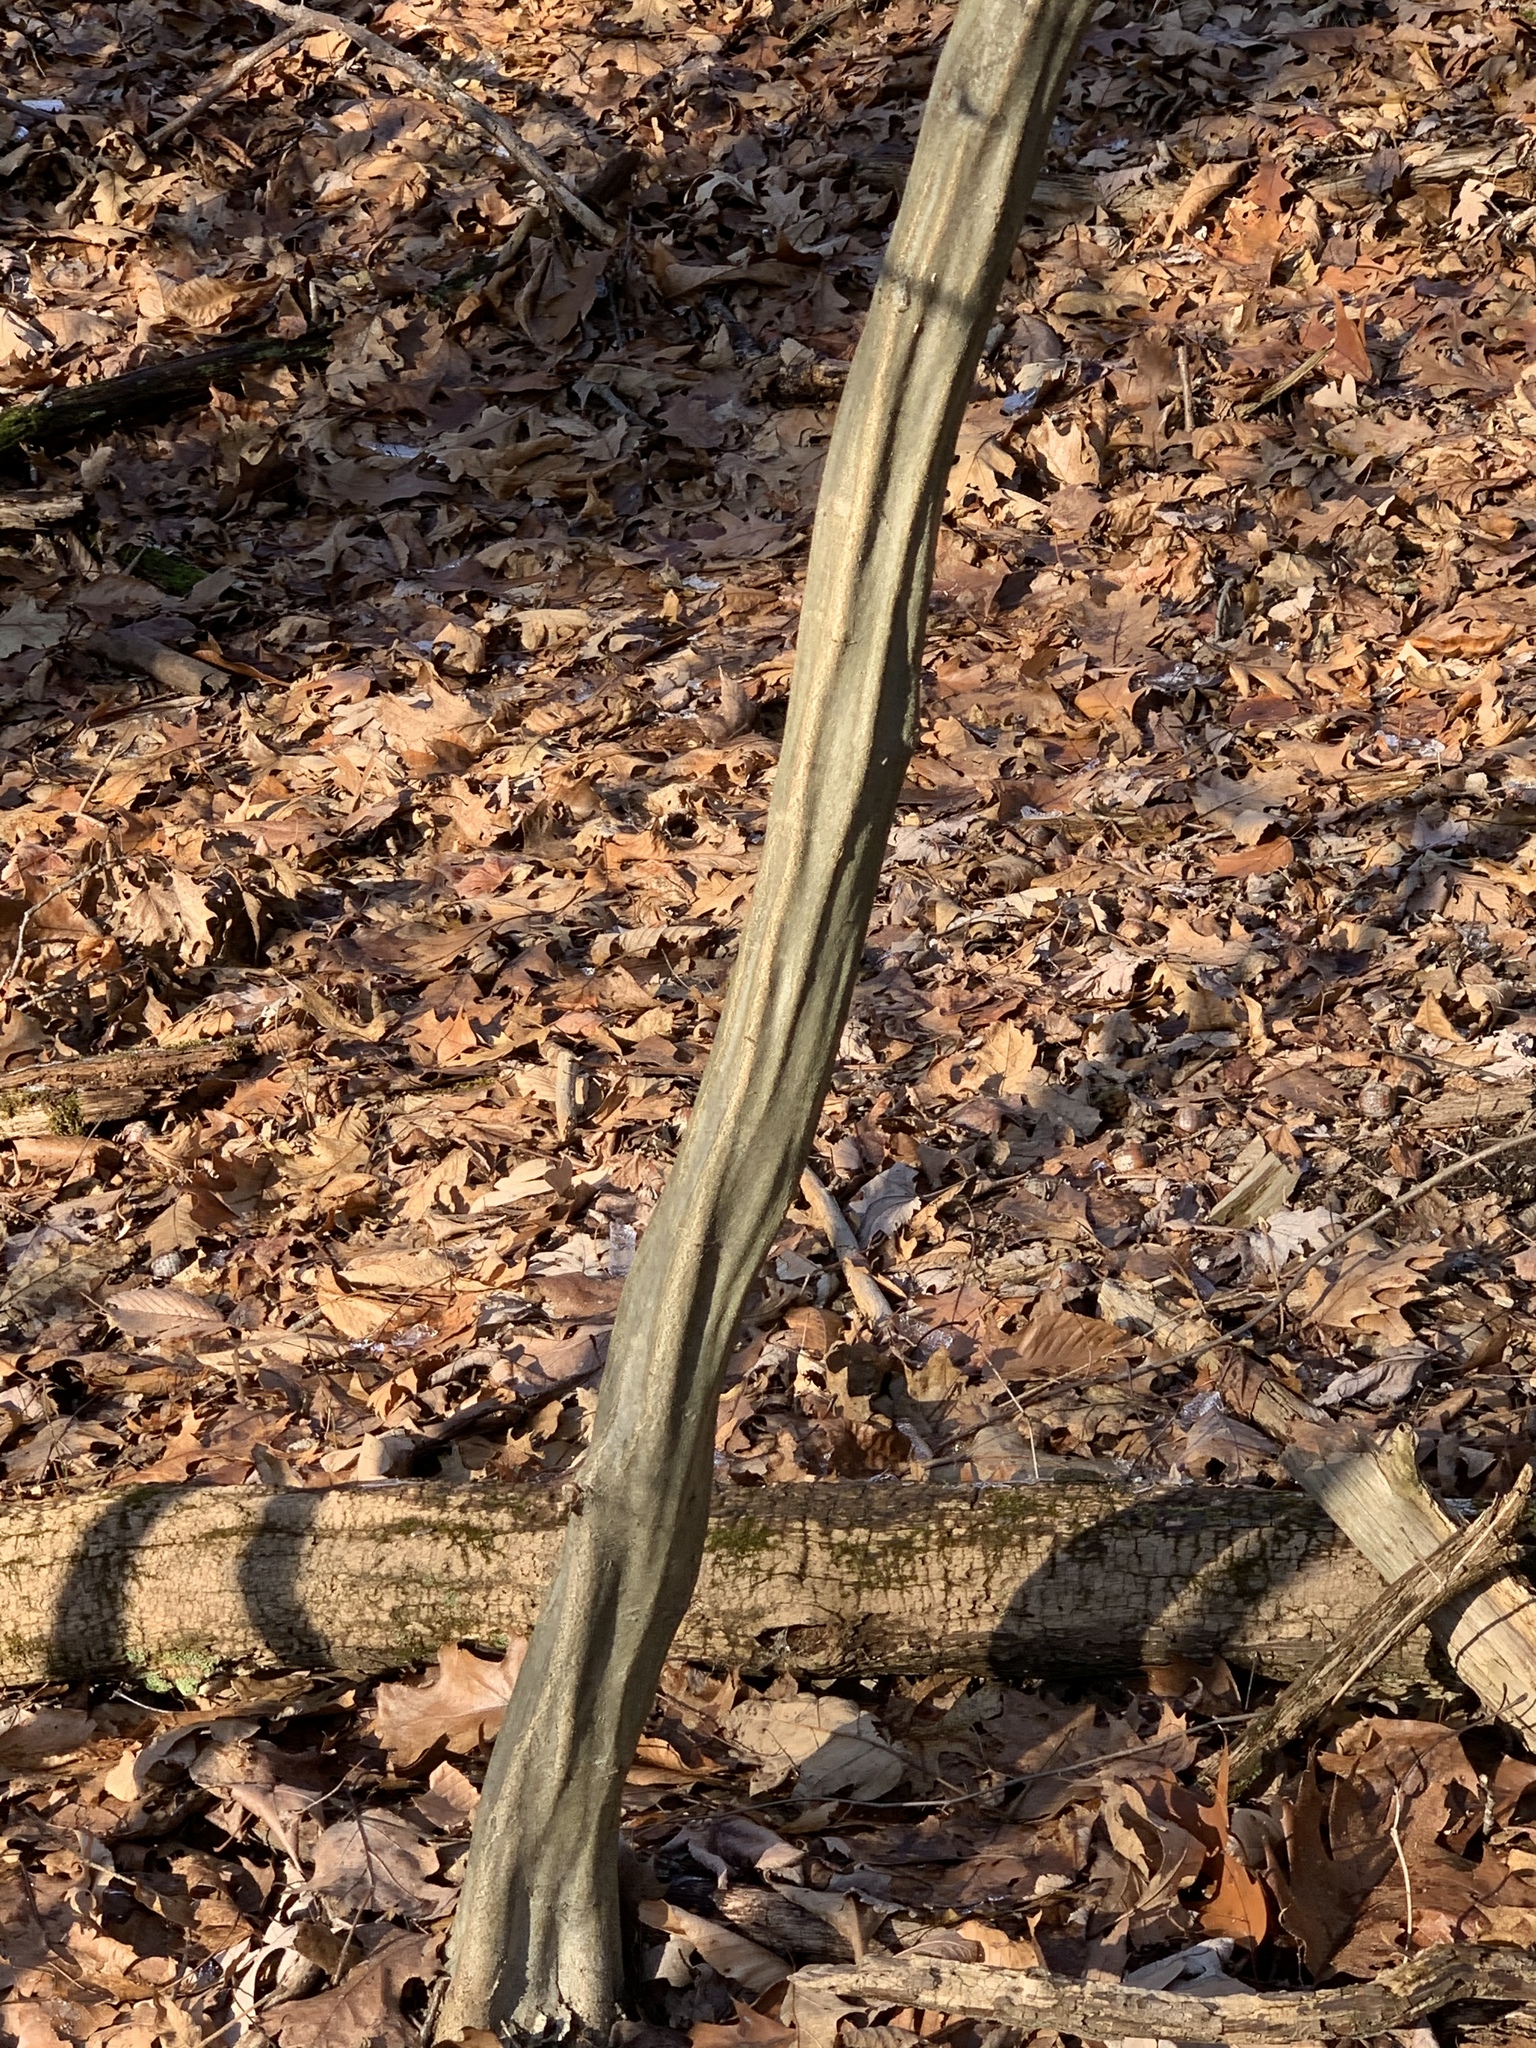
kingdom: Plantae
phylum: Tracheophyta
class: Magnoliopsida
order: Fagales
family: Betulaceae
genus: Carpinus
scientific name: Carpinus caroliniana
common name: American hornbeam
